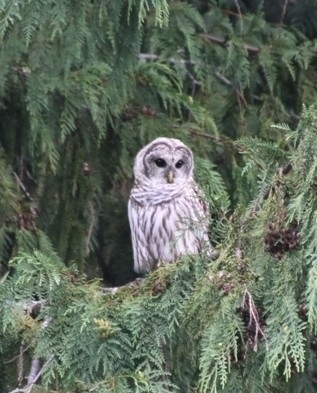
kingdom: Animalia
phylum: Chordata
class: Aves
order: Strigiformes
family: Strigidae
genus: Strix
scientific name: Strix varia
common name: Barred owl
